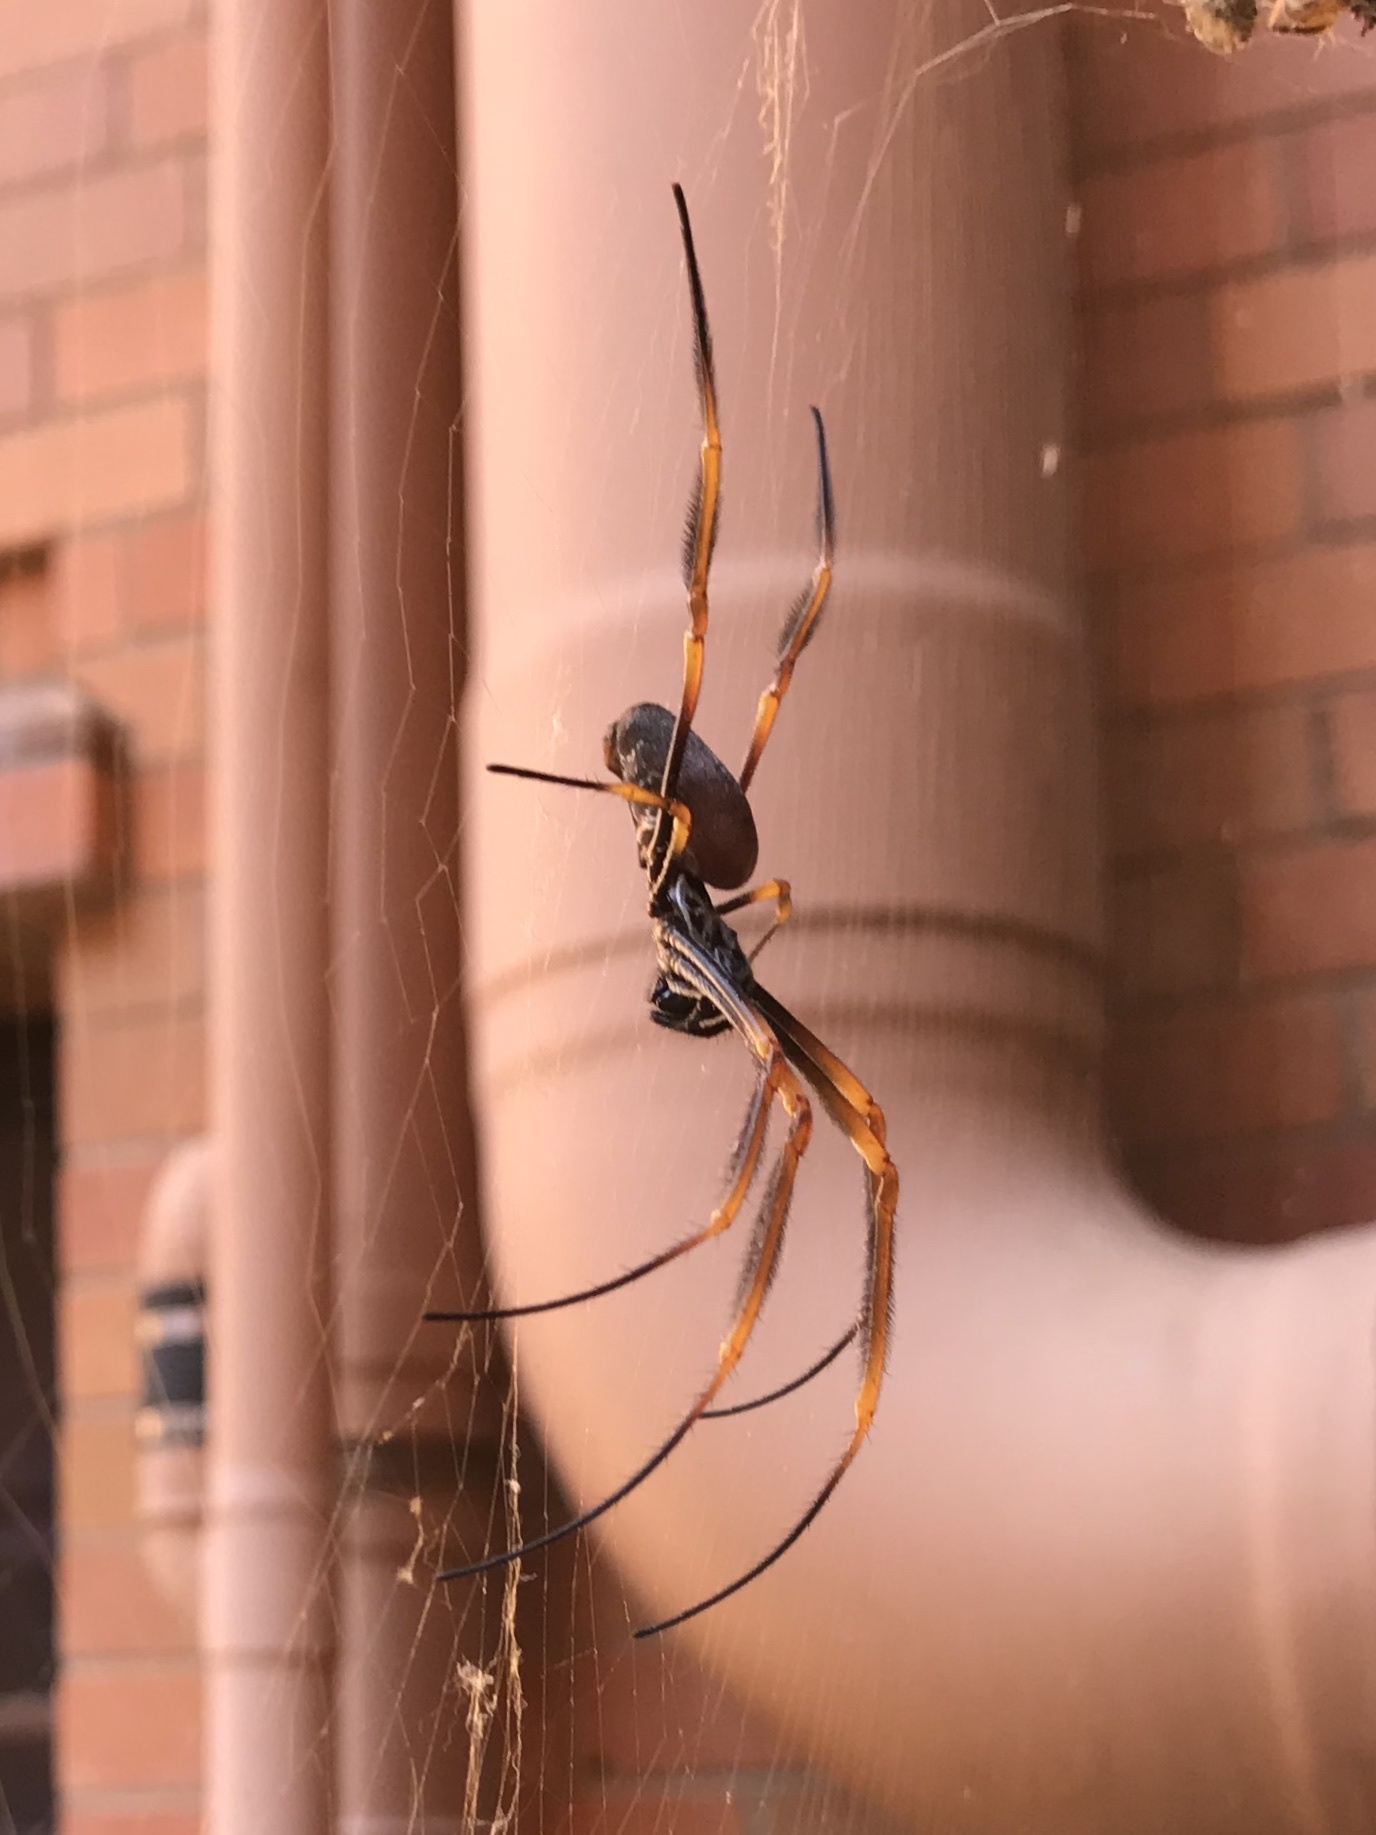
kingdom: Animalia
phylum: Arthropoda
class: Arachnida
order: Araneae
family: Araneidae
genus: Trichonephila
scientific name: Trichonephila plumipes
